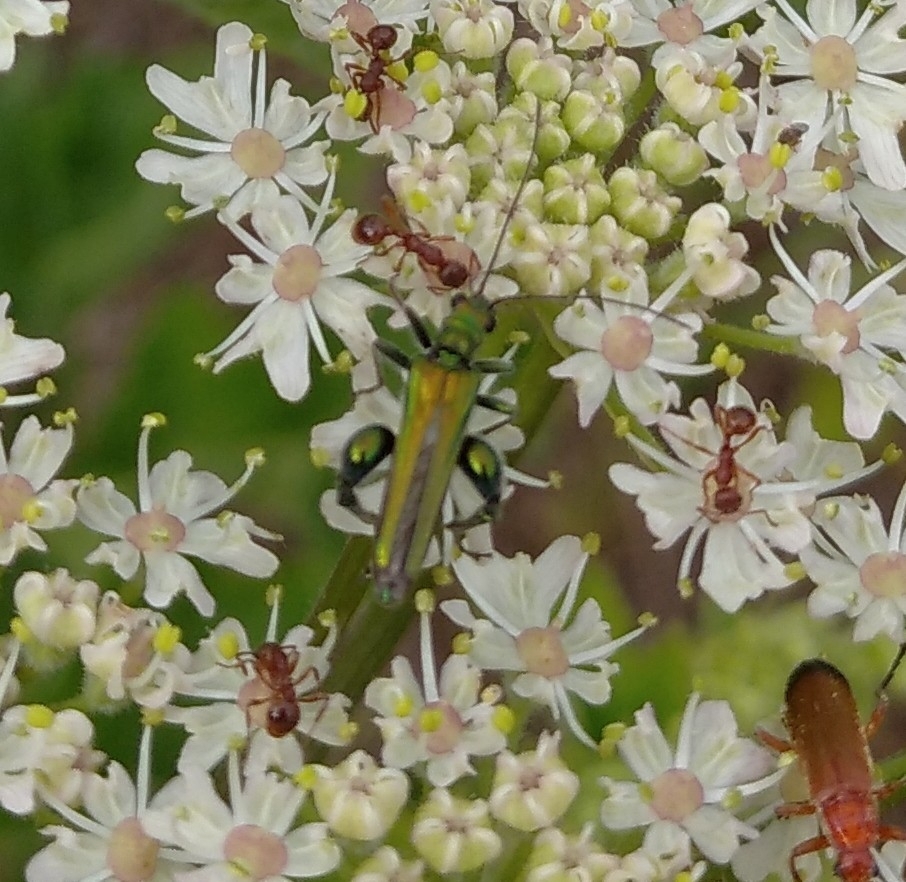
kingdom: Animalia
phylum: Arthropoda
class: Insecta
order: Coleoptera
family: Oedemeridae
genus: Oedemera
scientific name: Oedemera nobilis
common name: Swollen-thighed beetle
